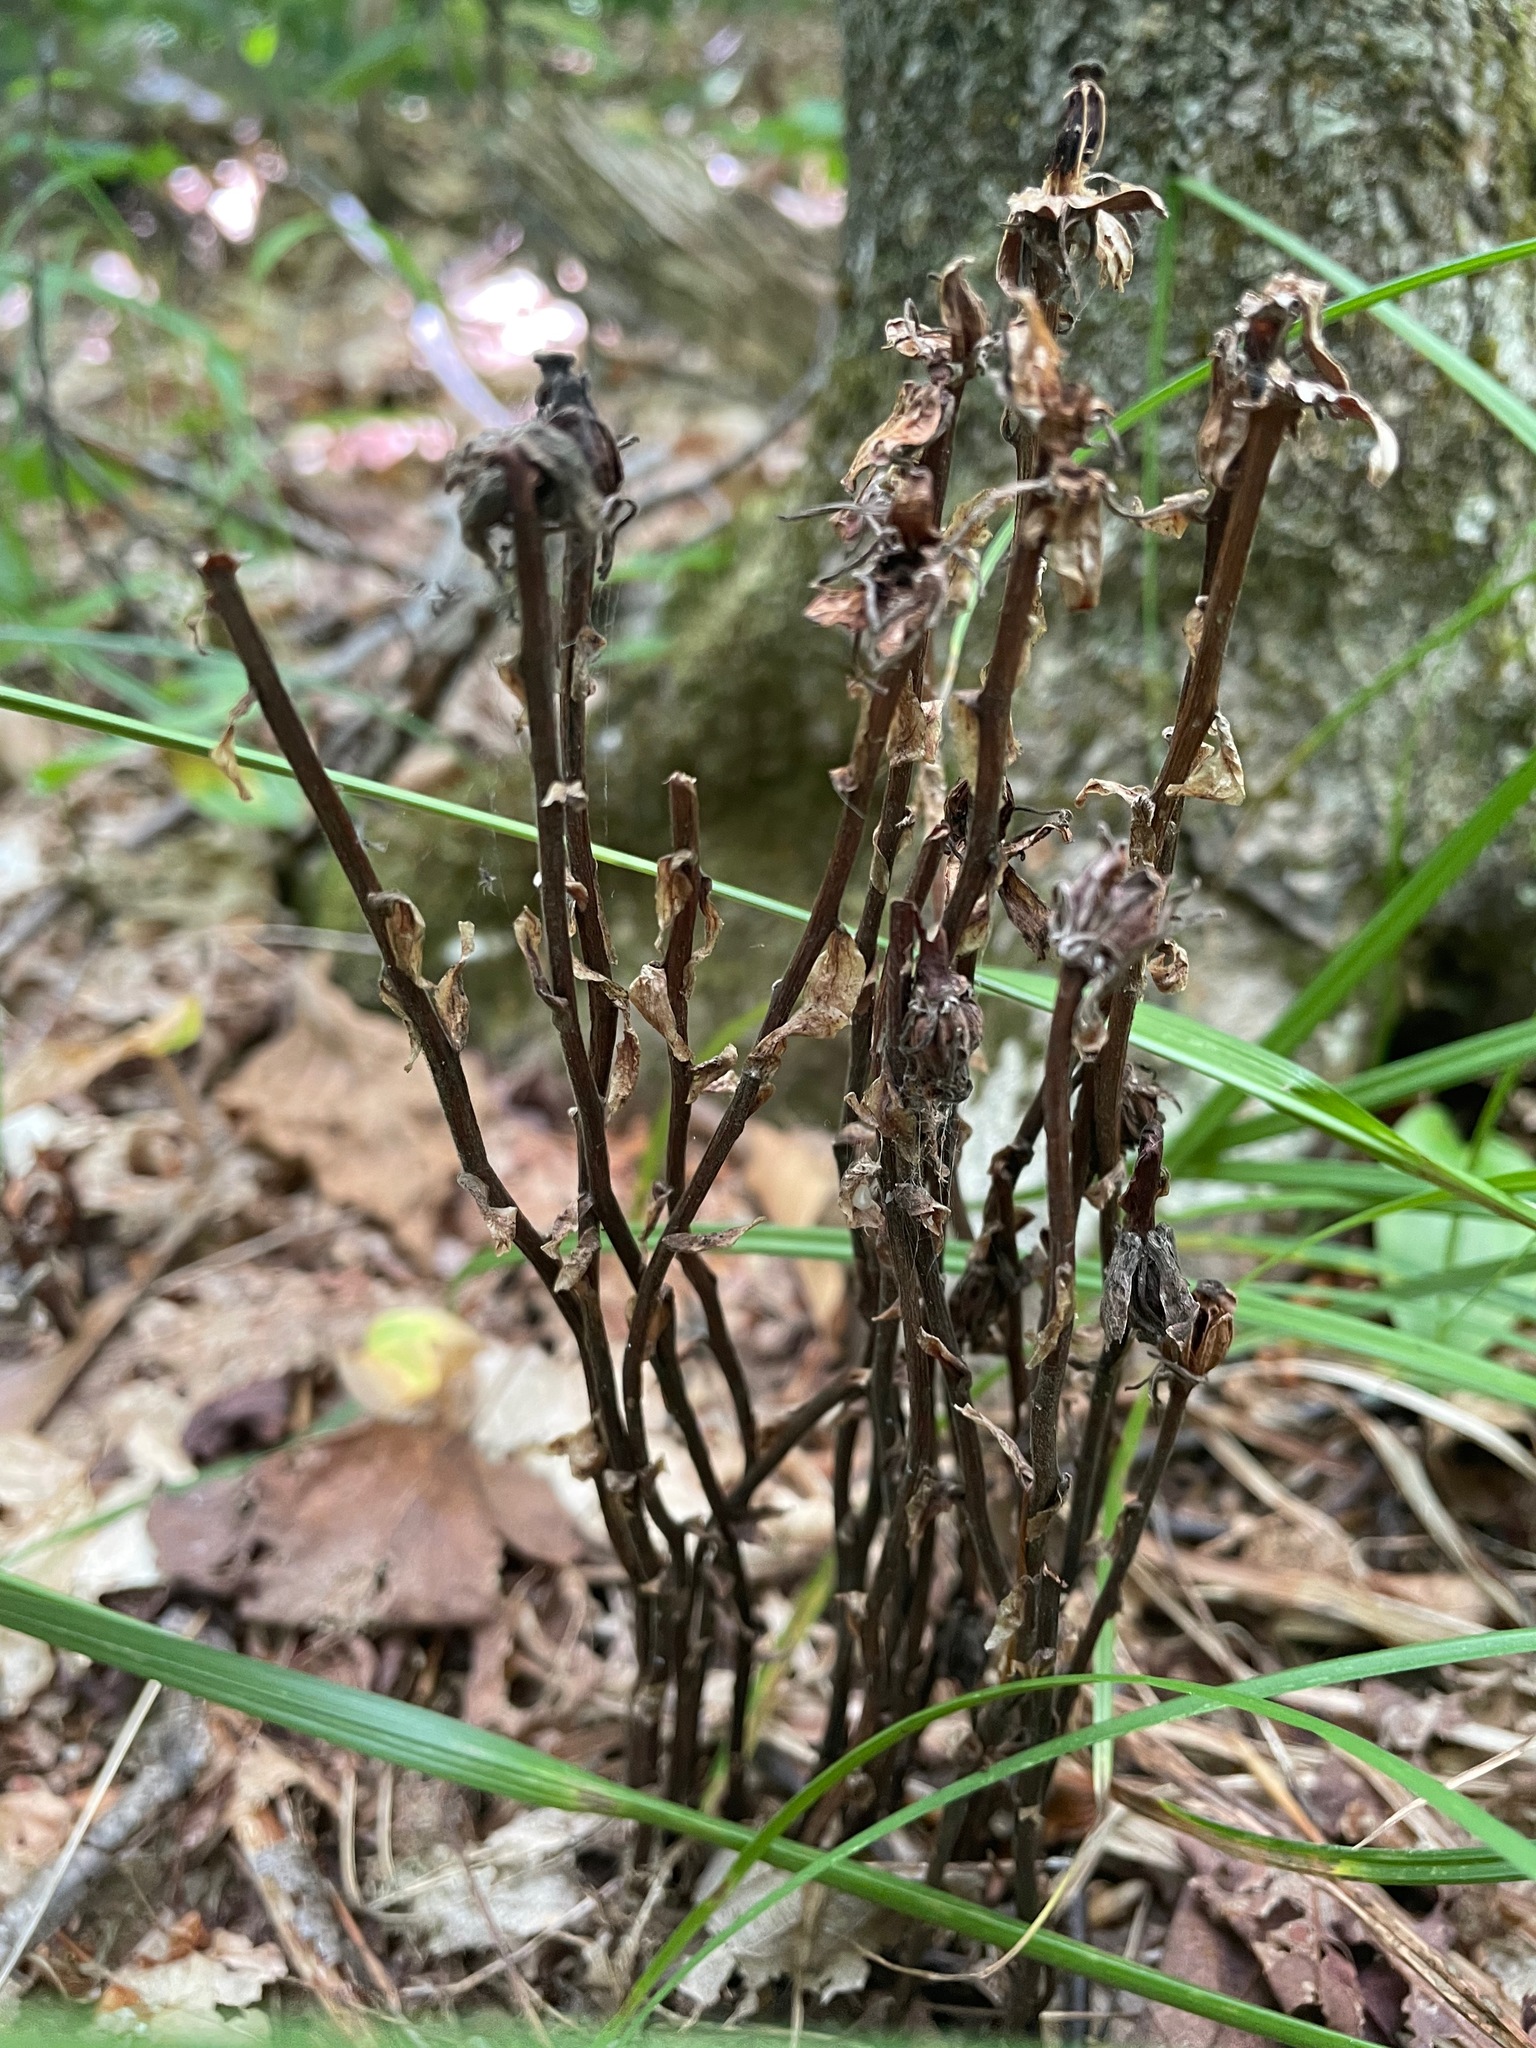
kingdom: Plantae
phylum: Tracheophyta
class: Magnoliopsida
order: Ericales
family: Ericaceae
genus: Monotropa
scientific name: Monotropa uniflora
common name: Convulsion root
